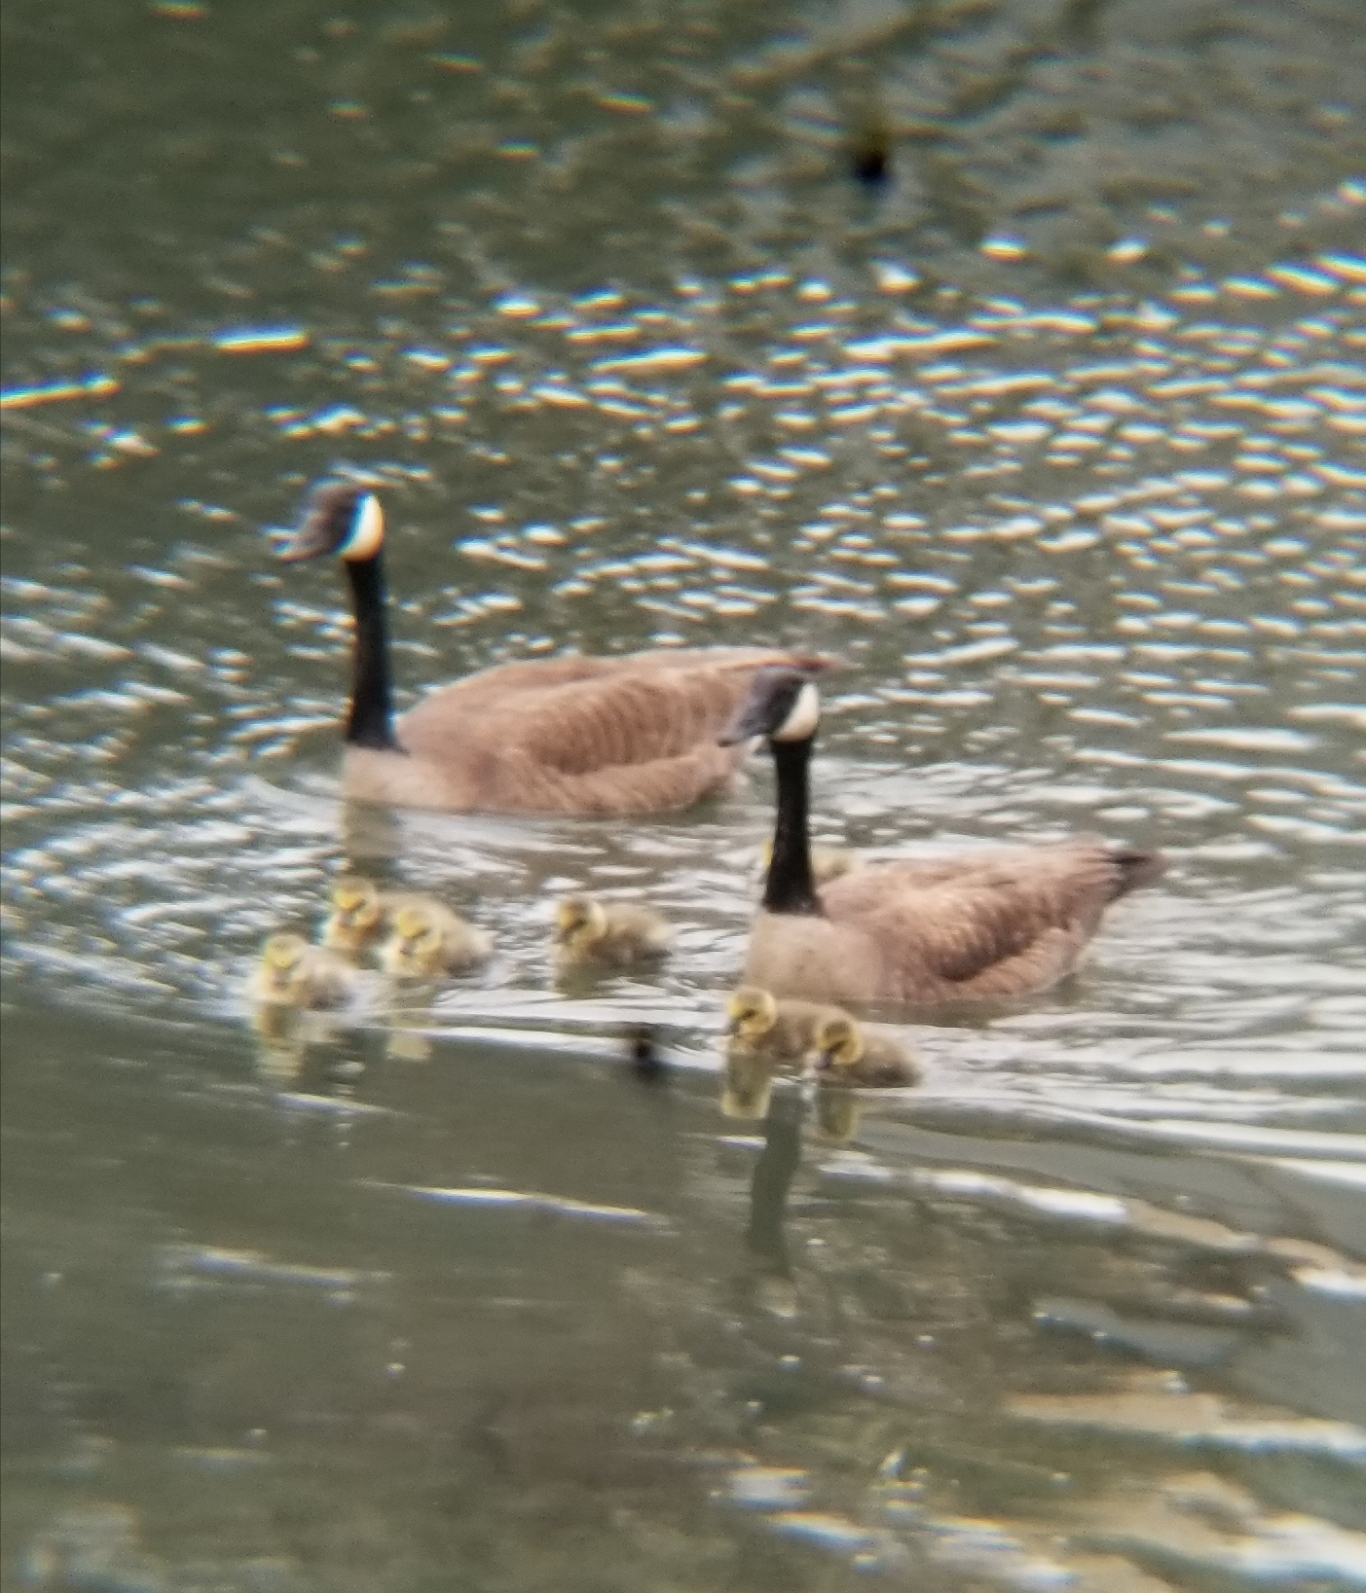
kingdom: Animalia
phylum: Chordata
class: Aves
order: Anseriformes
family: Anatidae
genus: Branta
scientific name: Branta canadensis
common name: Canada goose
